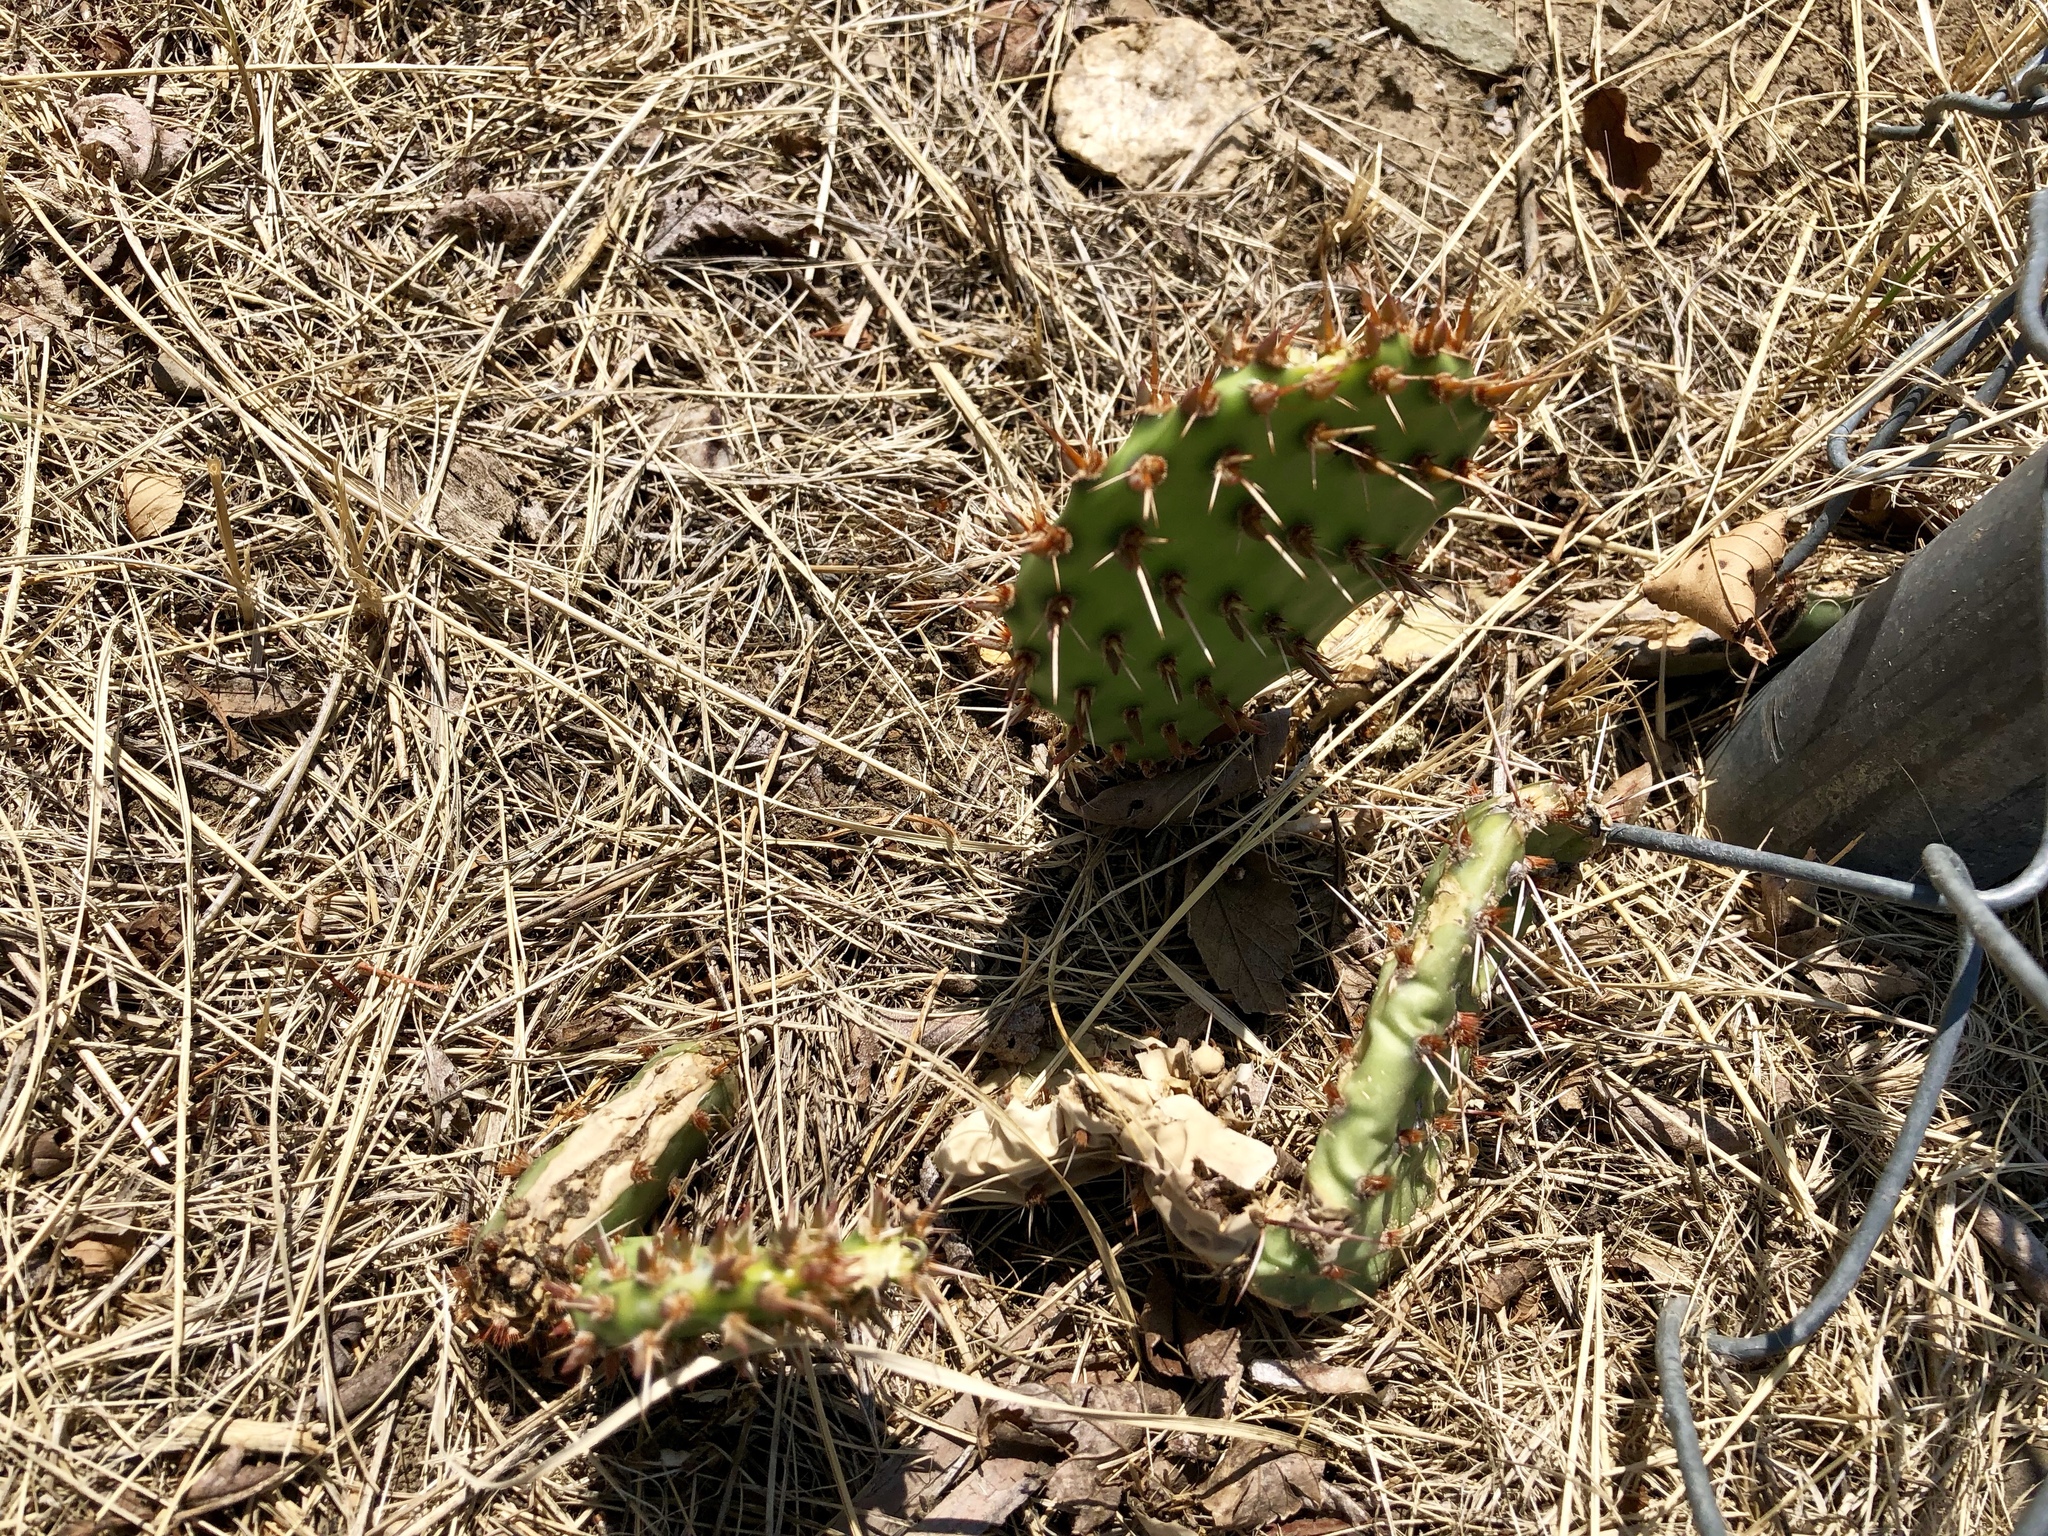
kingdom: Plantae
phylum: Tracheophyta
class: Magnoliopsida
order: Caryophyllales
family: Cactaceae
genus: Opuntia
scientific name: Opuntia cymochila
